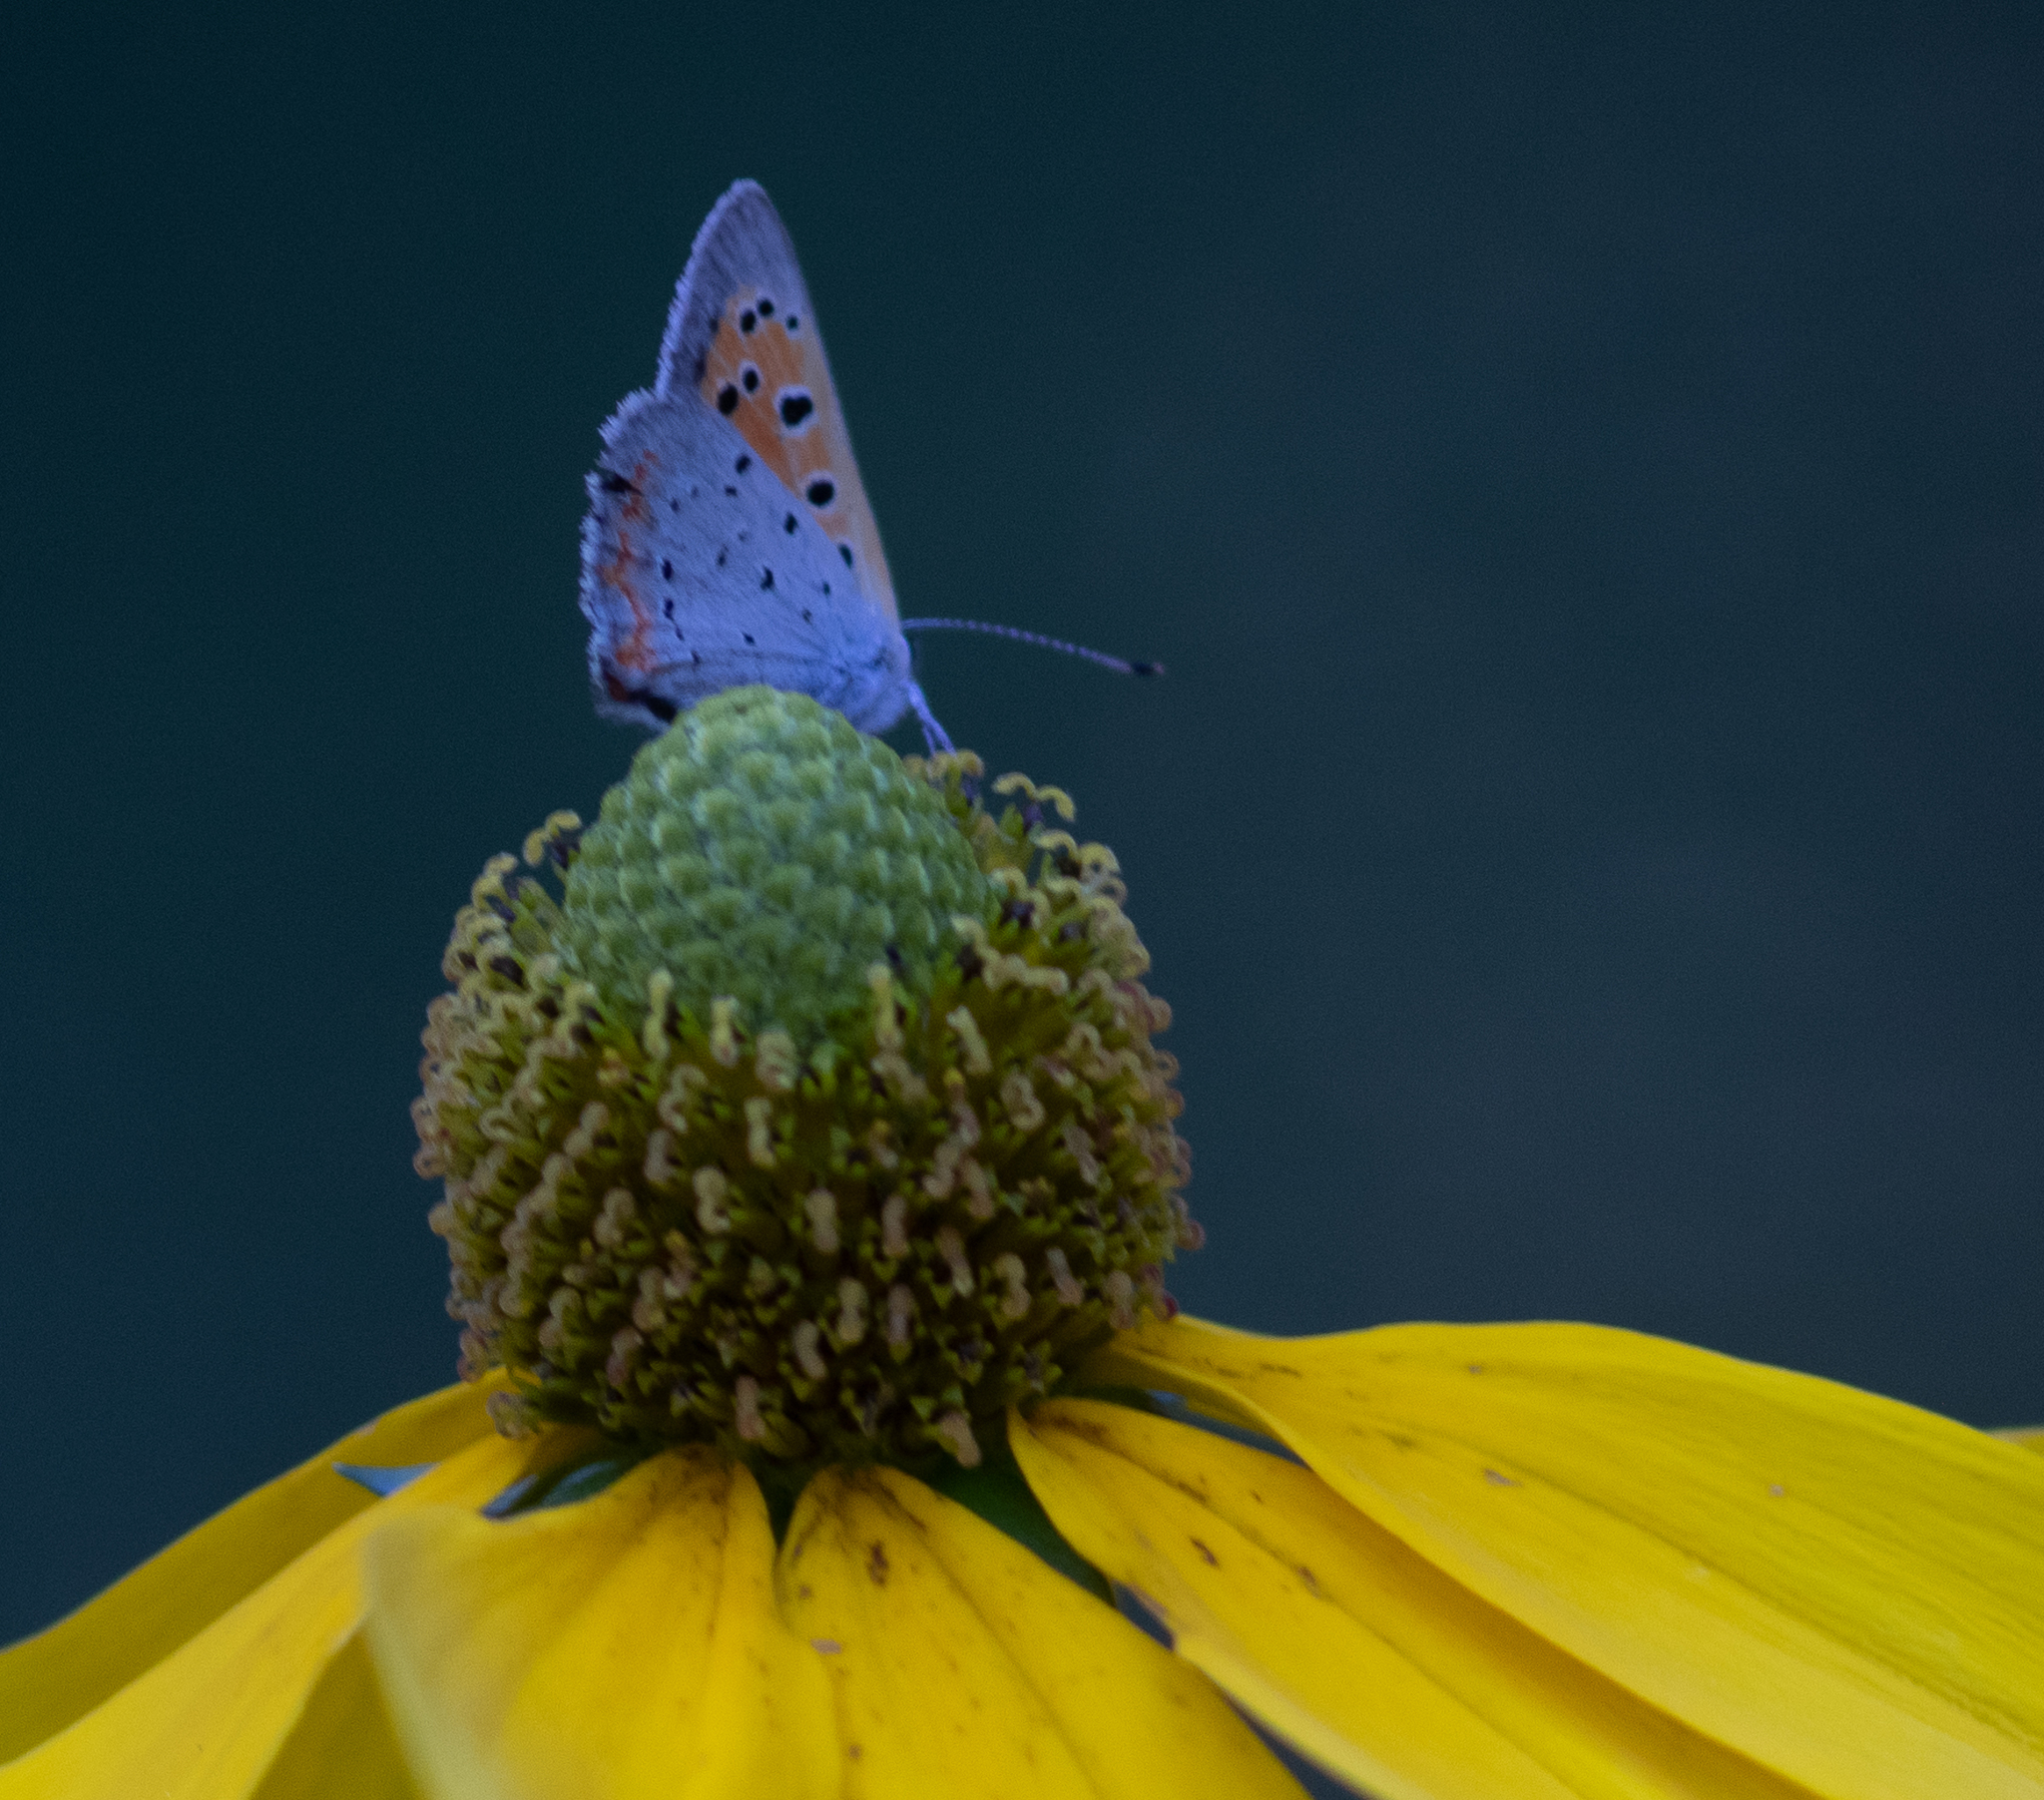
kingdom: Animalia
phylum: Arthropoda
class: Insecta
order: Lepidoptera
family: Lycaenidae
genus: Lycaena
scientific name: Lycaena hypophlaeas
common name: American copper
